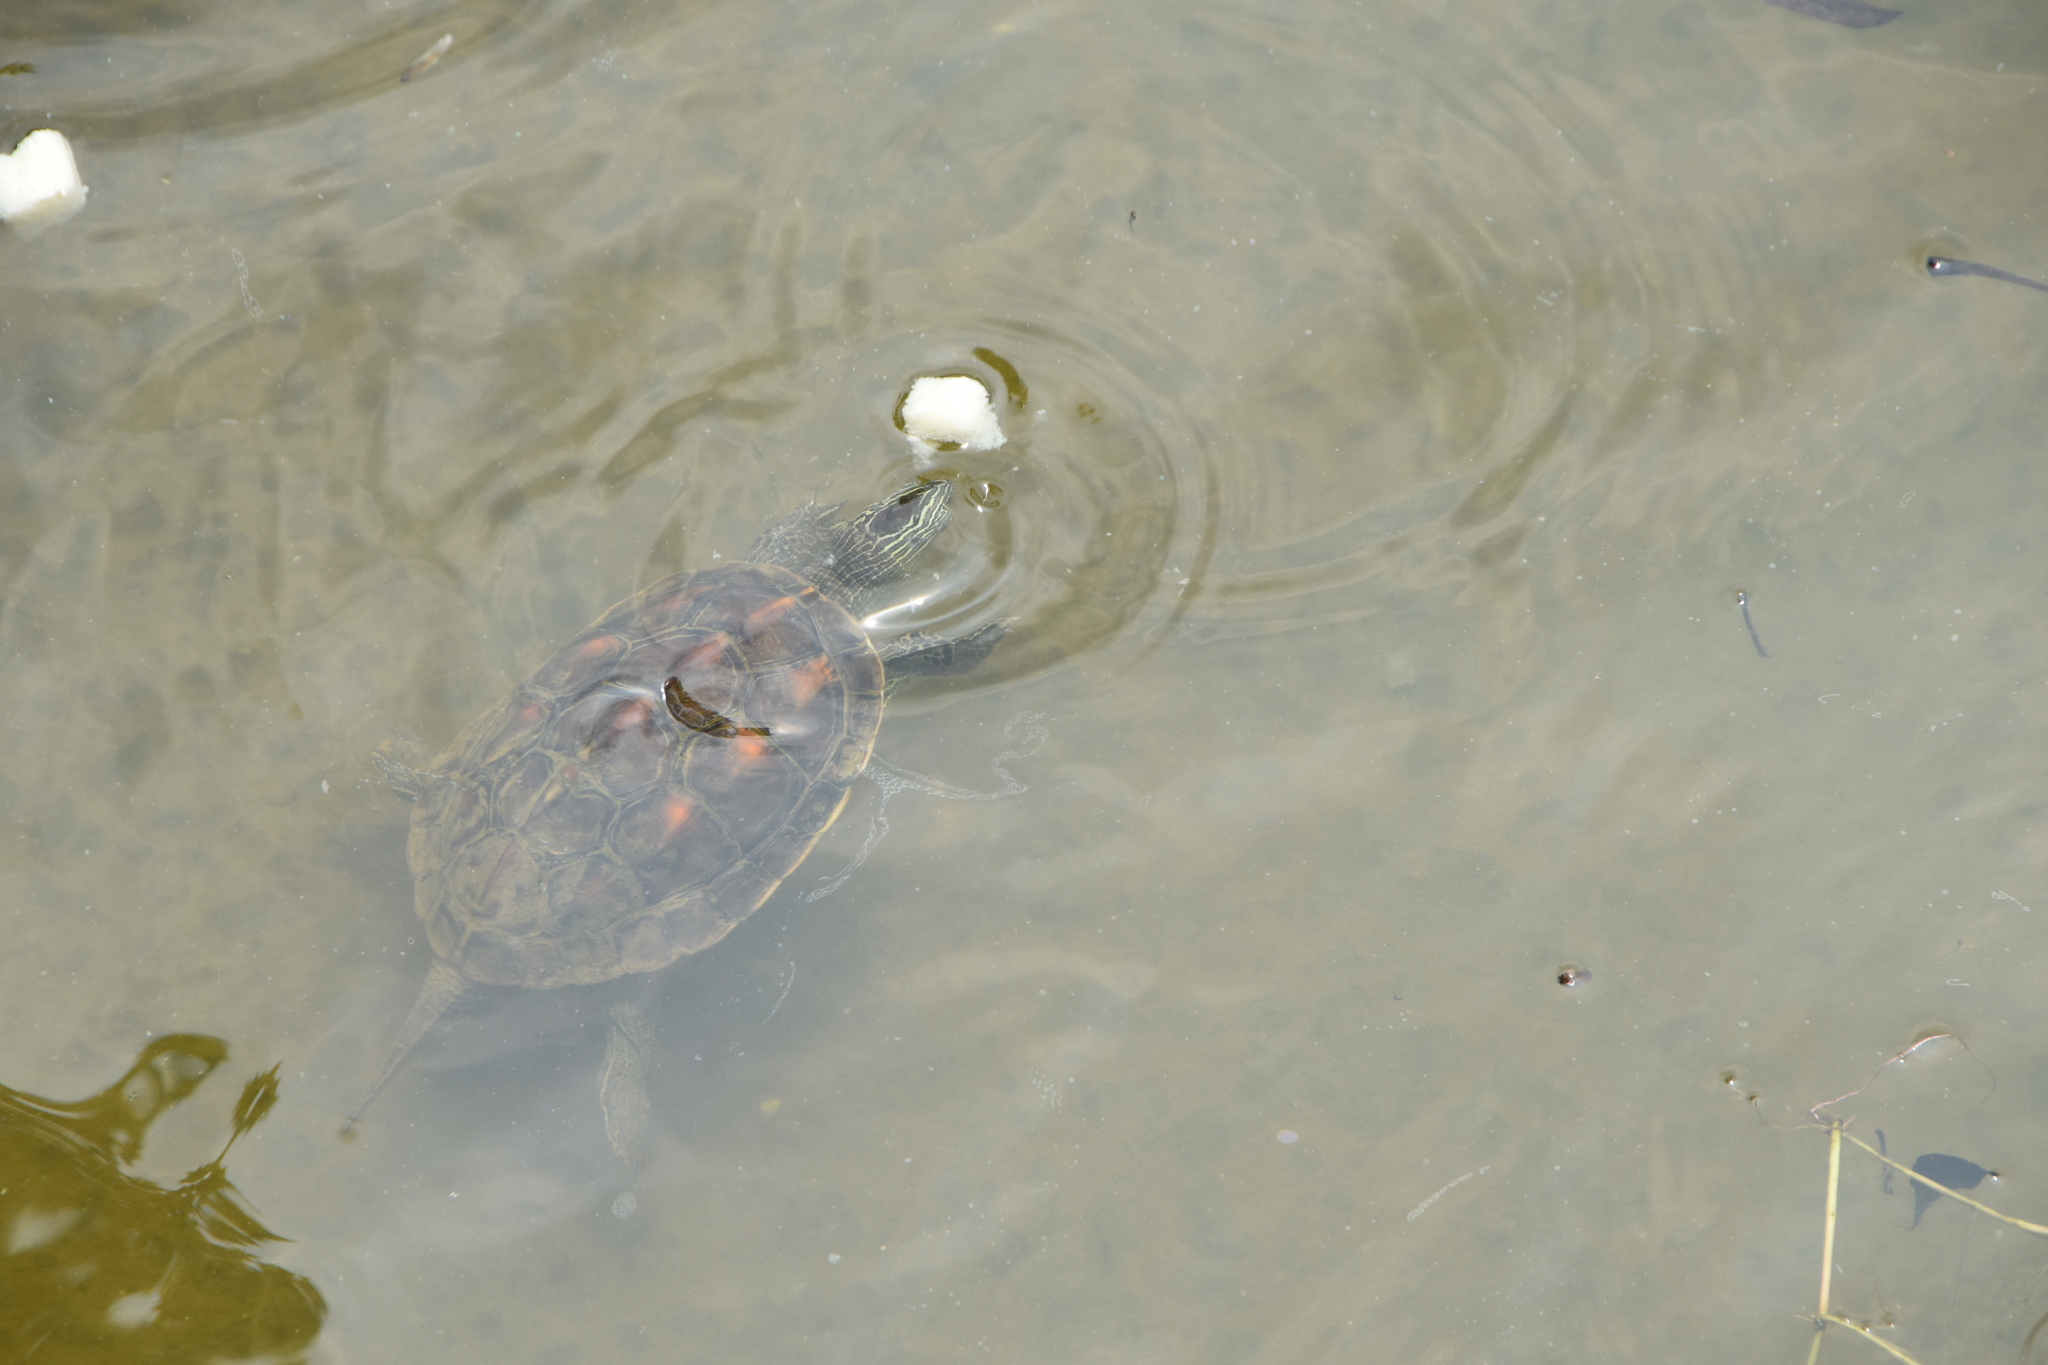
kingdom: Animalia
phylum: Chordata
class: Testudines
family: Geoemydidae
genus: Mauremys
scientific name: Mauremys sinensis
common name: Chinese stripe-necked turtle
